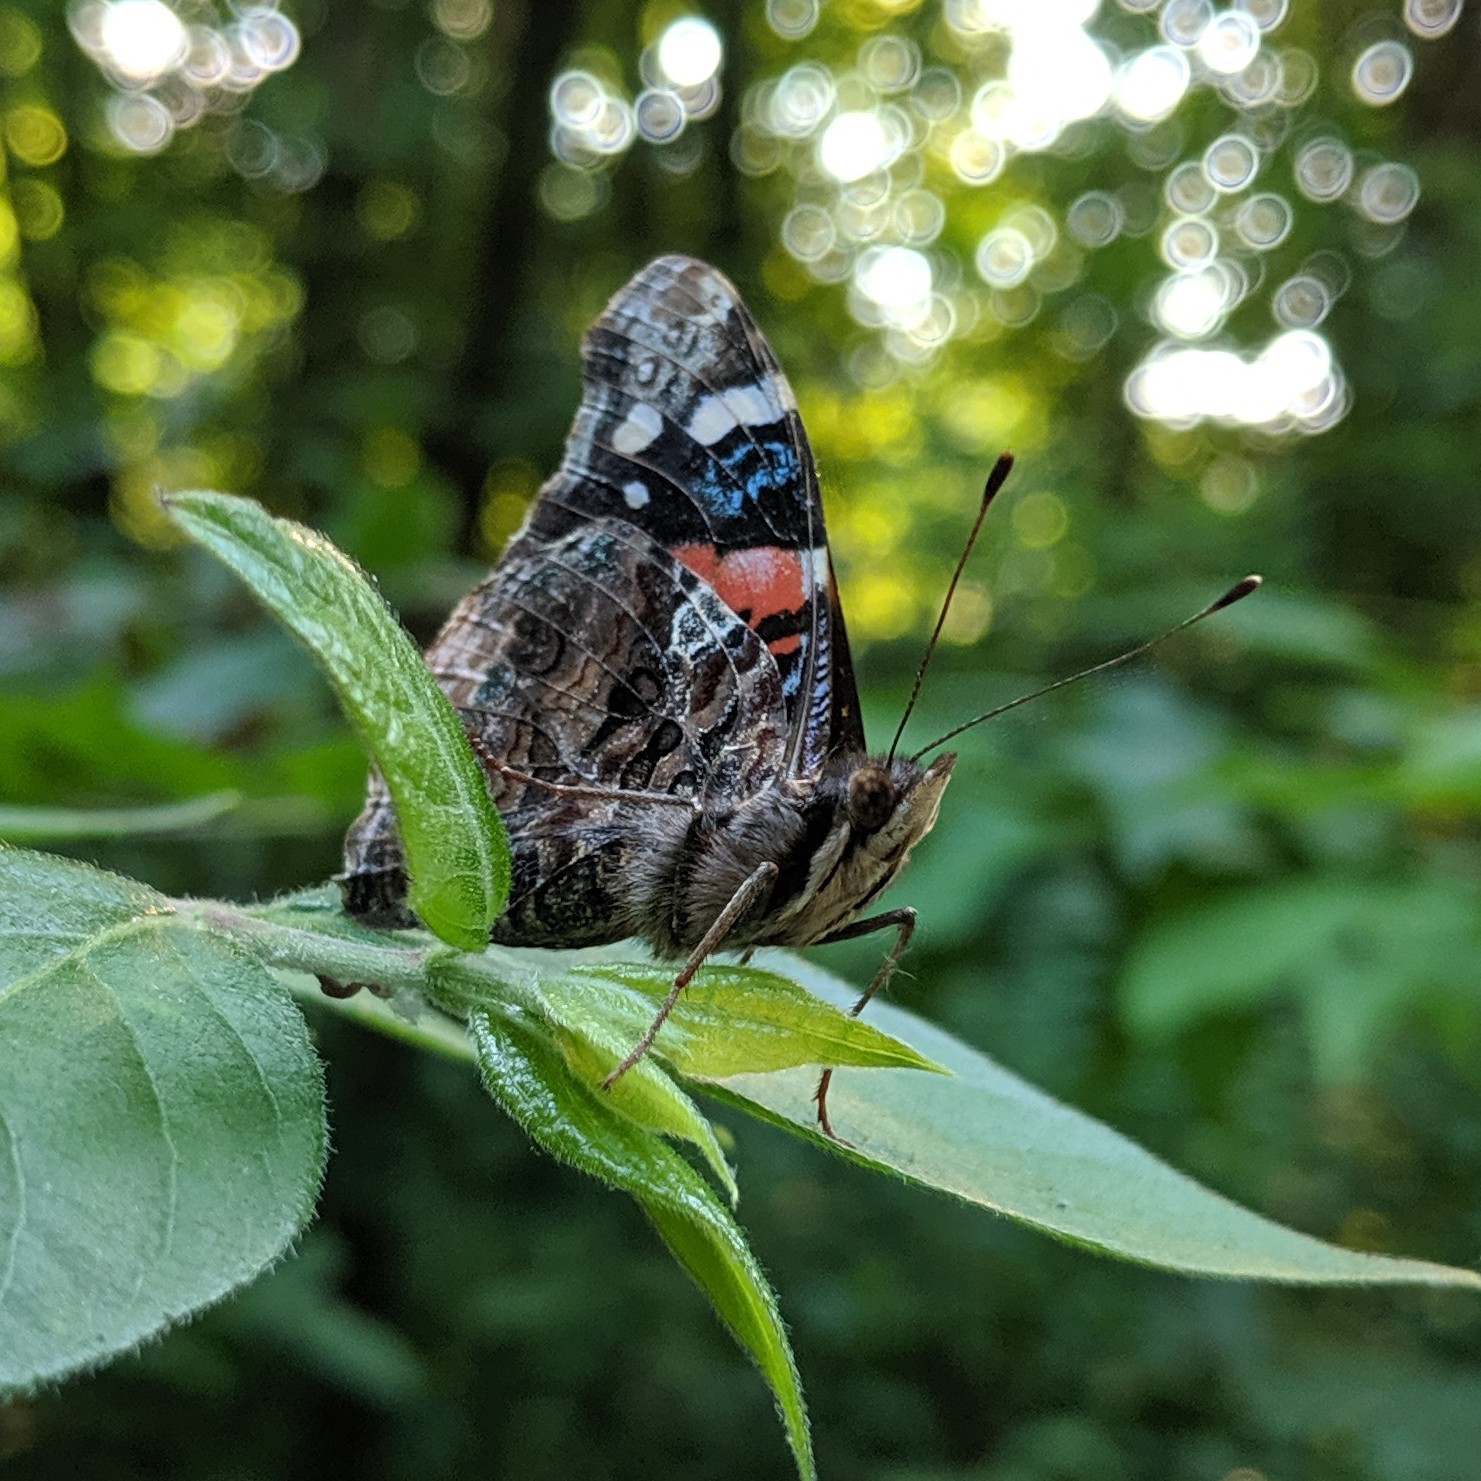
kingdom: Animalia
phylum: Arthropoda
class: Insecta
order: Lepidoptera
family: Nymphalidae
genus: Vanessa
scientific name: Vanessa atalanta
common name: Red admiral
